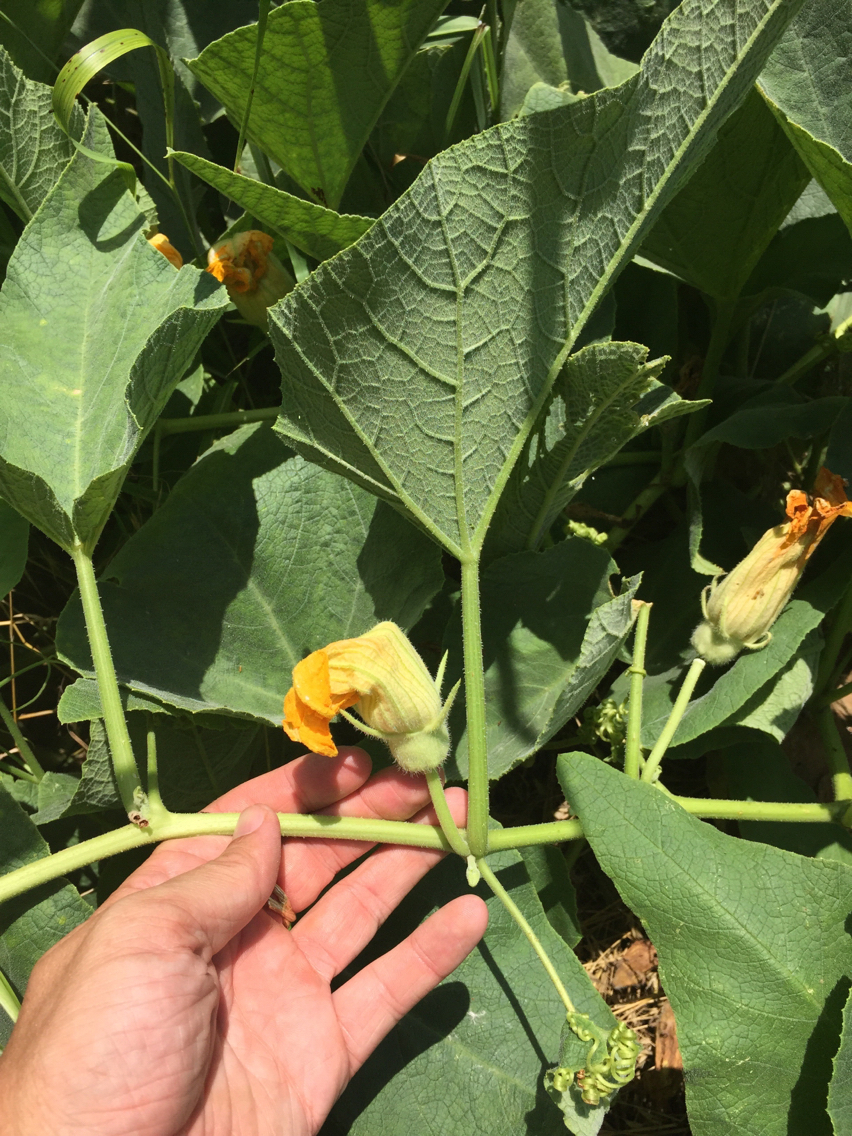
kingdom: Plantae
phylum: Tracheophyta
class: Magnoliopsida
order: Cucurbitales
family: Cucurbitaceae
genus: Cucurbita
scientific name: Cucurbita foetidissima
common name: Buffalo gourd
